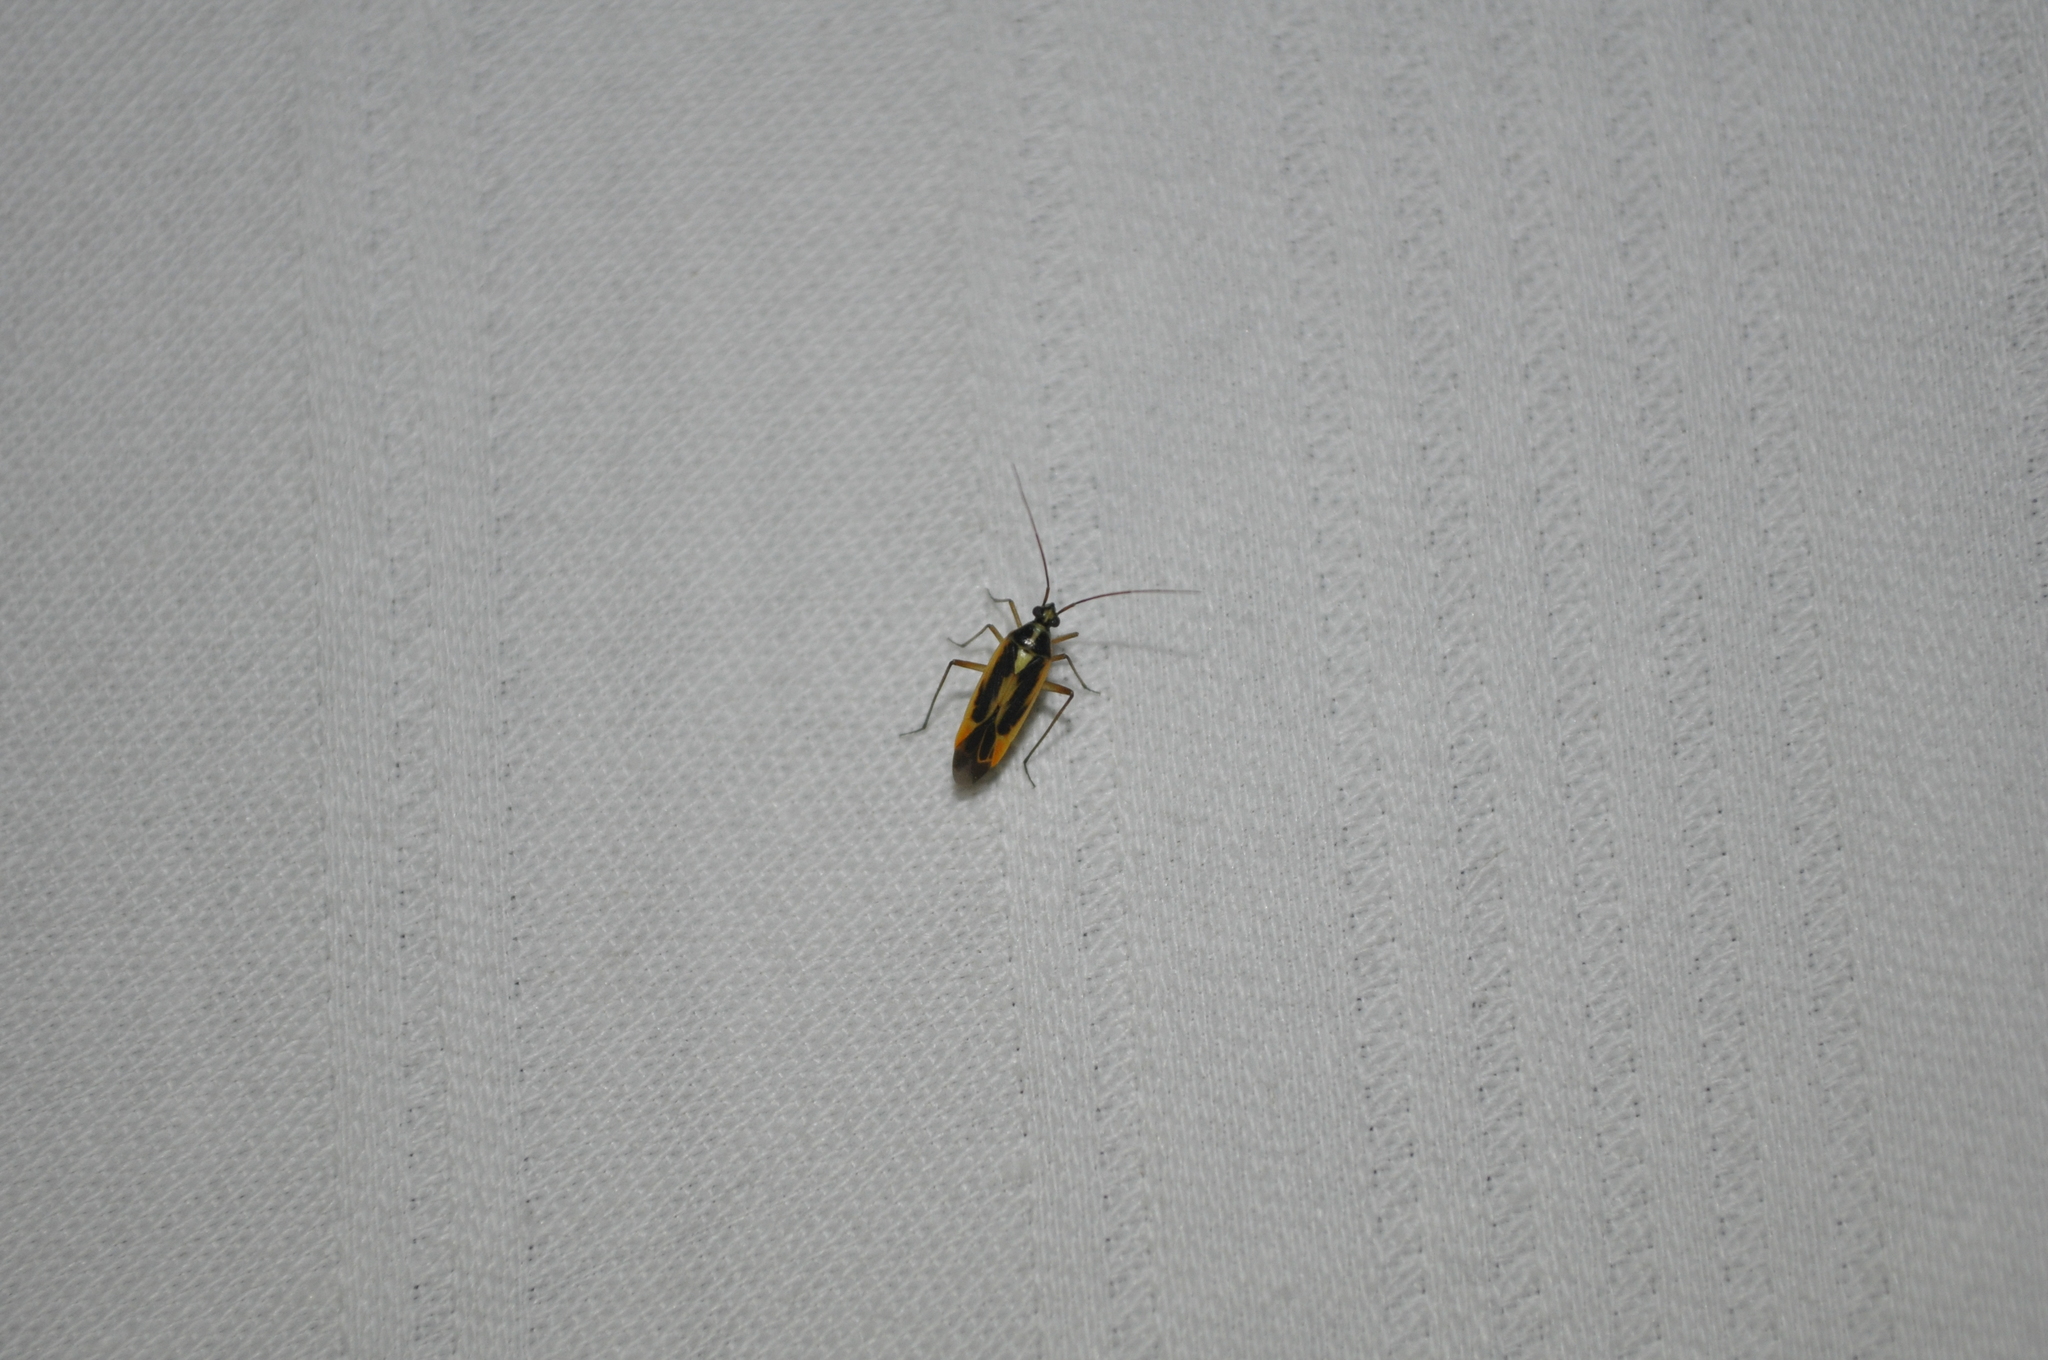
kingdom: Animalia
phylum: Arthropoda
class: Insecta
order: Hemiptera
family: Miridae
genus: Stenotus
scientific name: Stenotus binotatus
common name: Plant bug
